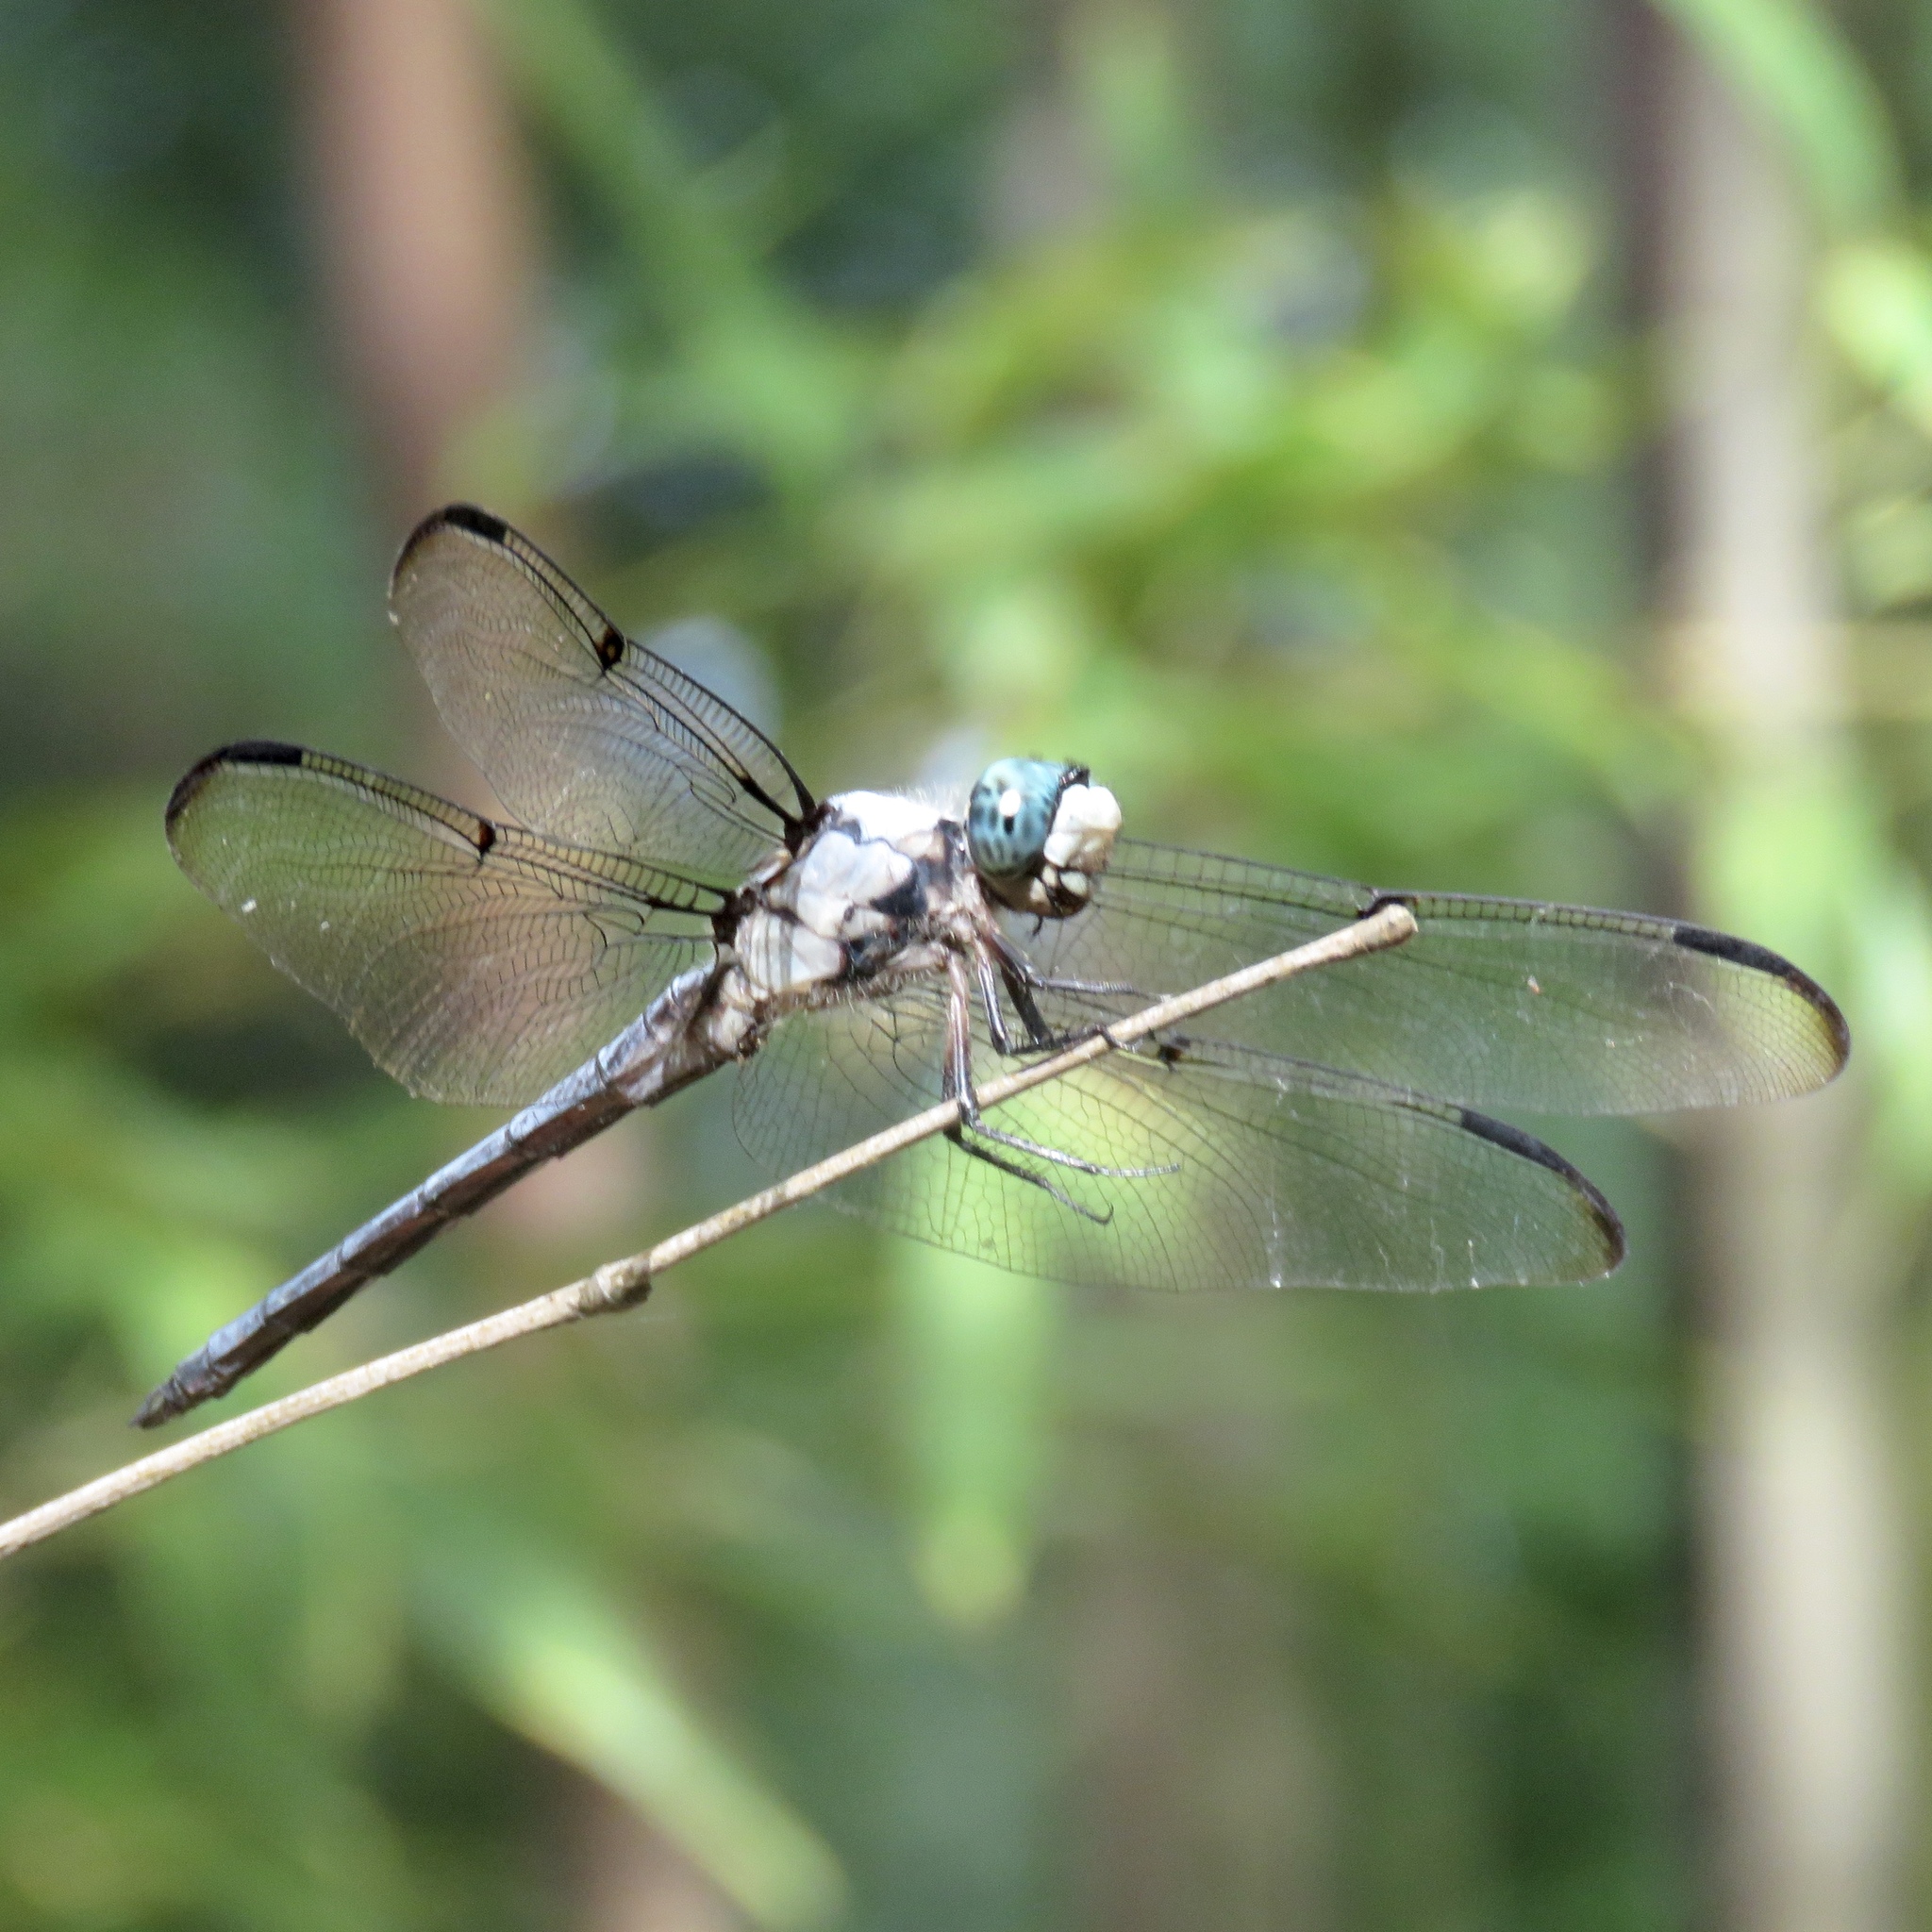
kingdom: Animalia
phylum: Arthropoda
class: Insecta
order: Odonata
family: Libellulidae
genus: Libellula
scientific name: Libellula vibrans
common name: Great blue skimmer
